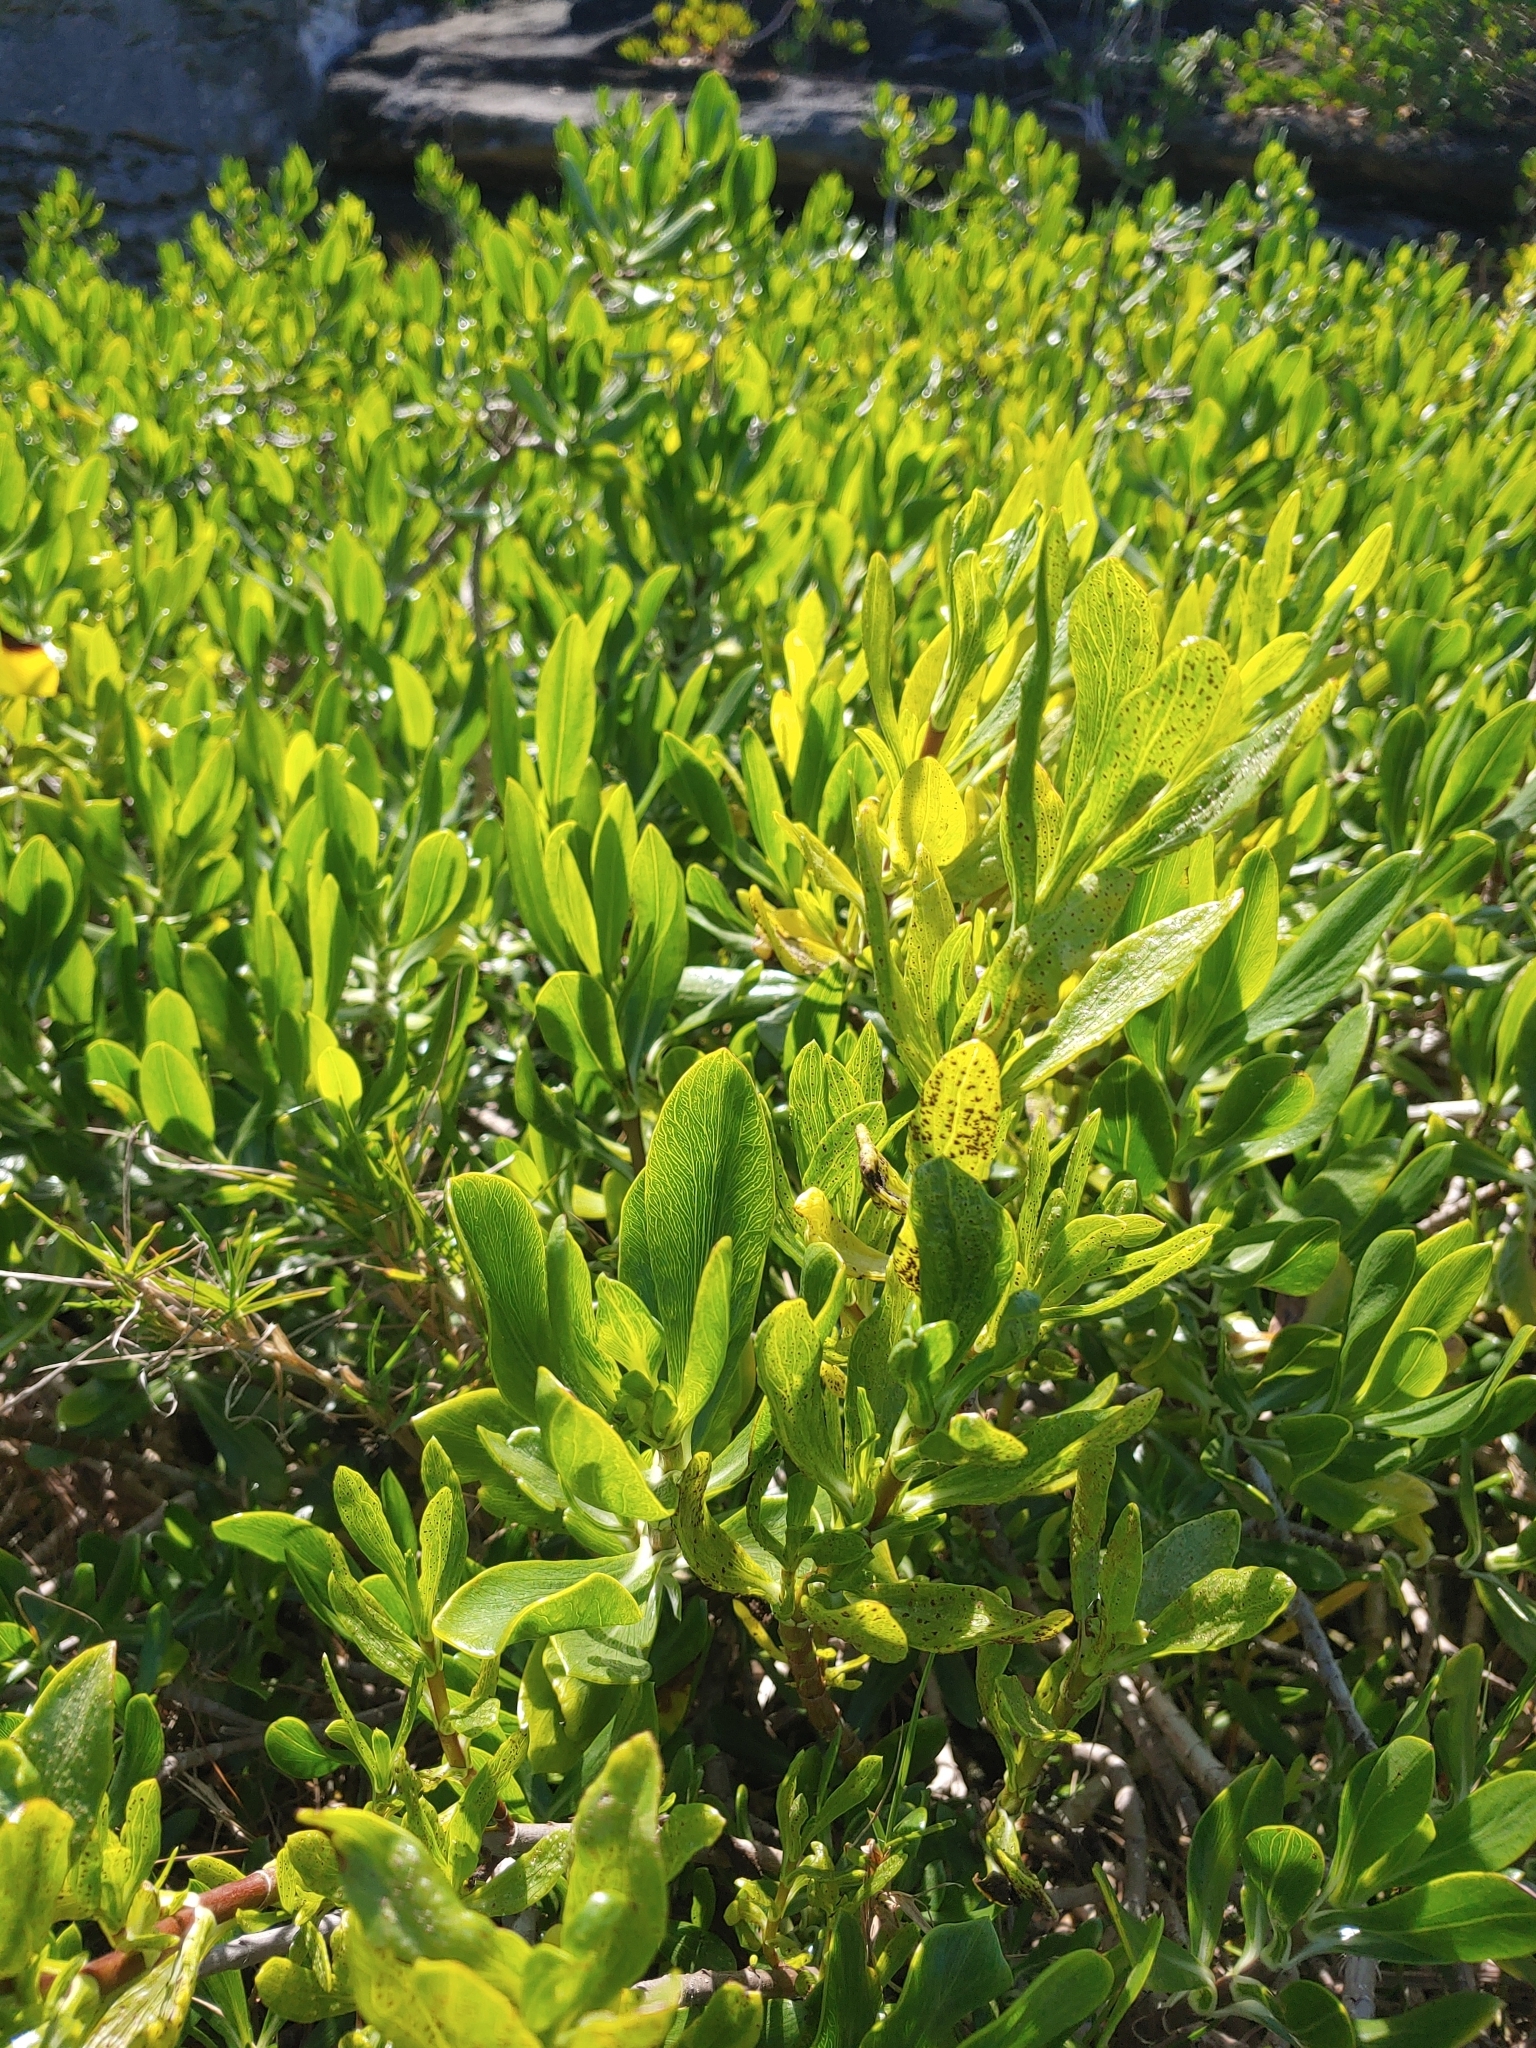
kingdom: Plantae
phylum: Tracheophyta
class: Magnoliopsida
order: Asterales
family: Asteraceae
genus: Borrichia
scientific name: Borrichia arborescens
